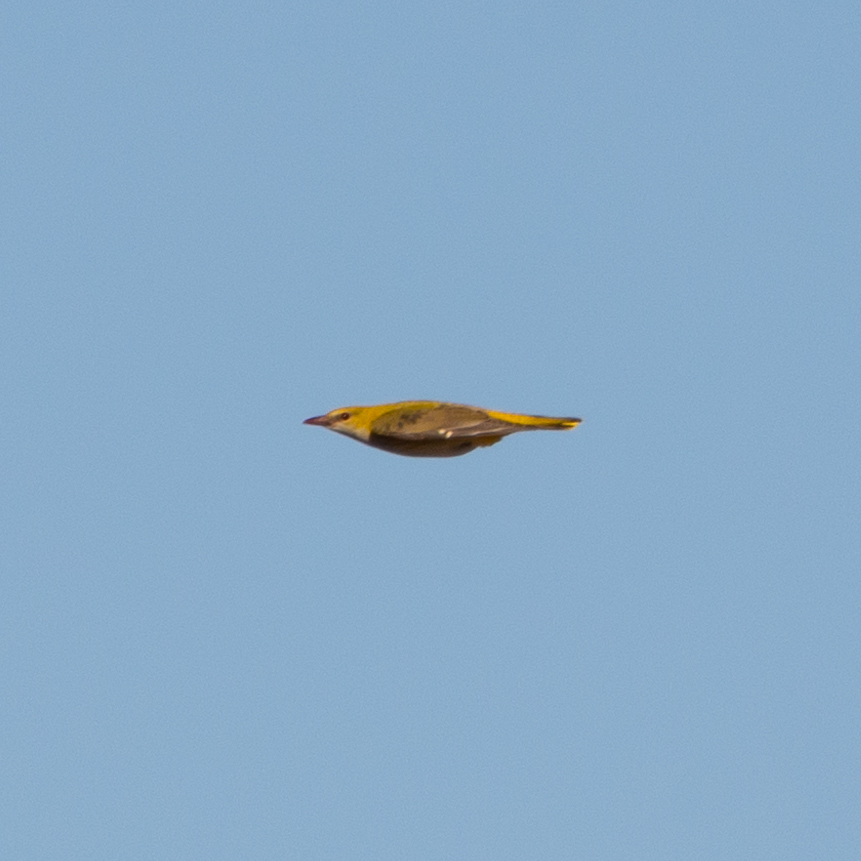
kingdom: Animalia
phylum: Chordata
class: Aves
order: Passeriformes
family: Oriolidae
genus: Oriolus
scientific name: Oriolus oriolus
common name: Eurasian golden oriole
